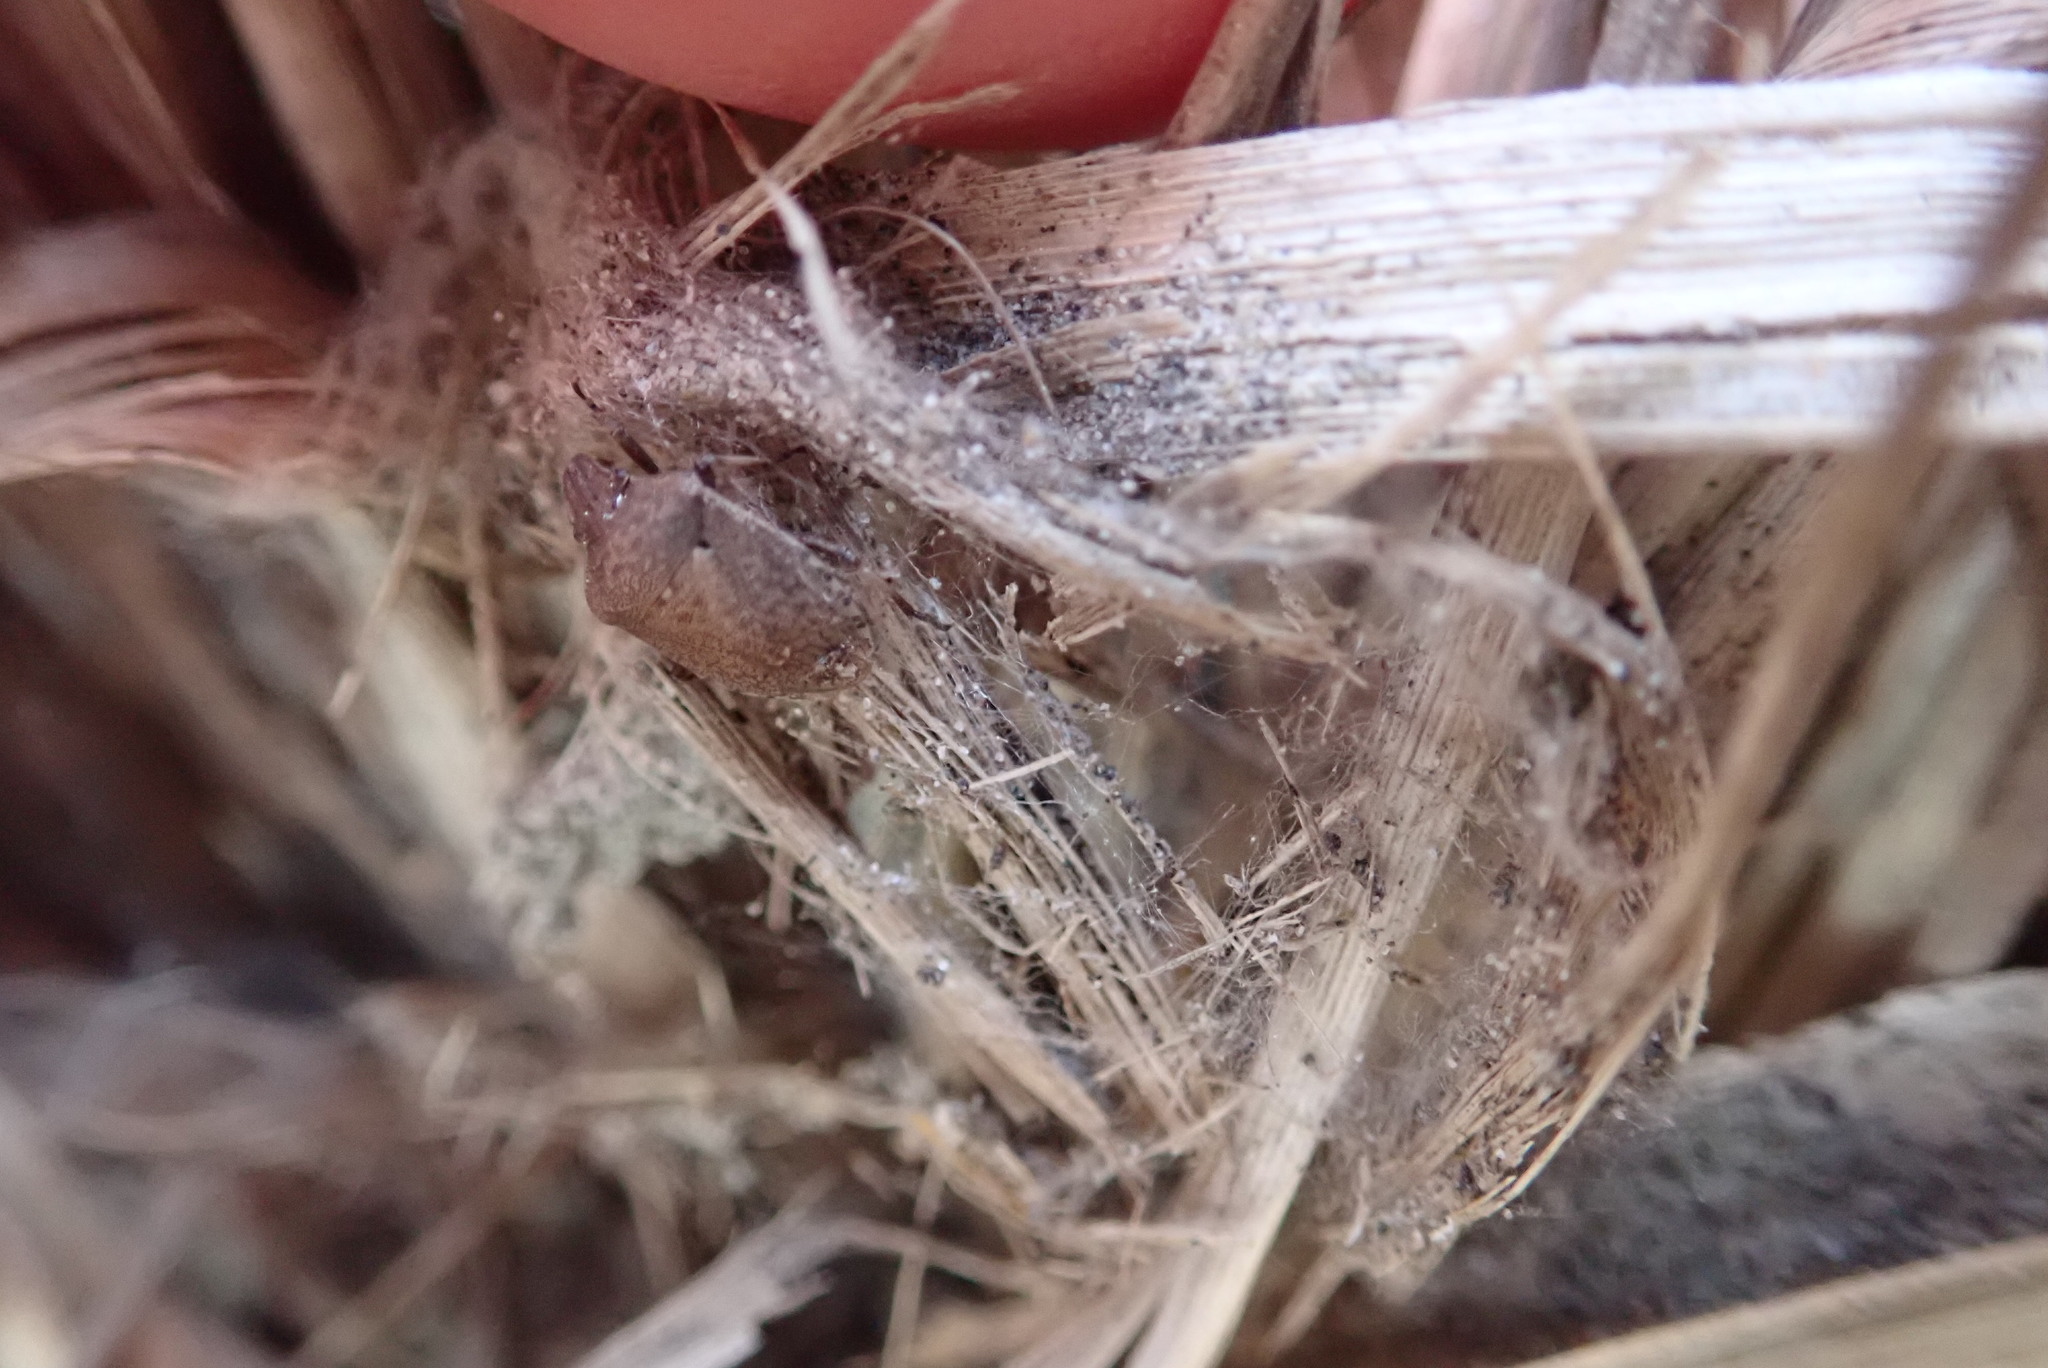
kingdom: Animalia
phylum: Arthropoda
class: Insecta
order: Hemiptera
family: Pentatomidae
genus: Dictyotus
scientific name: Dictyotus caenosus
